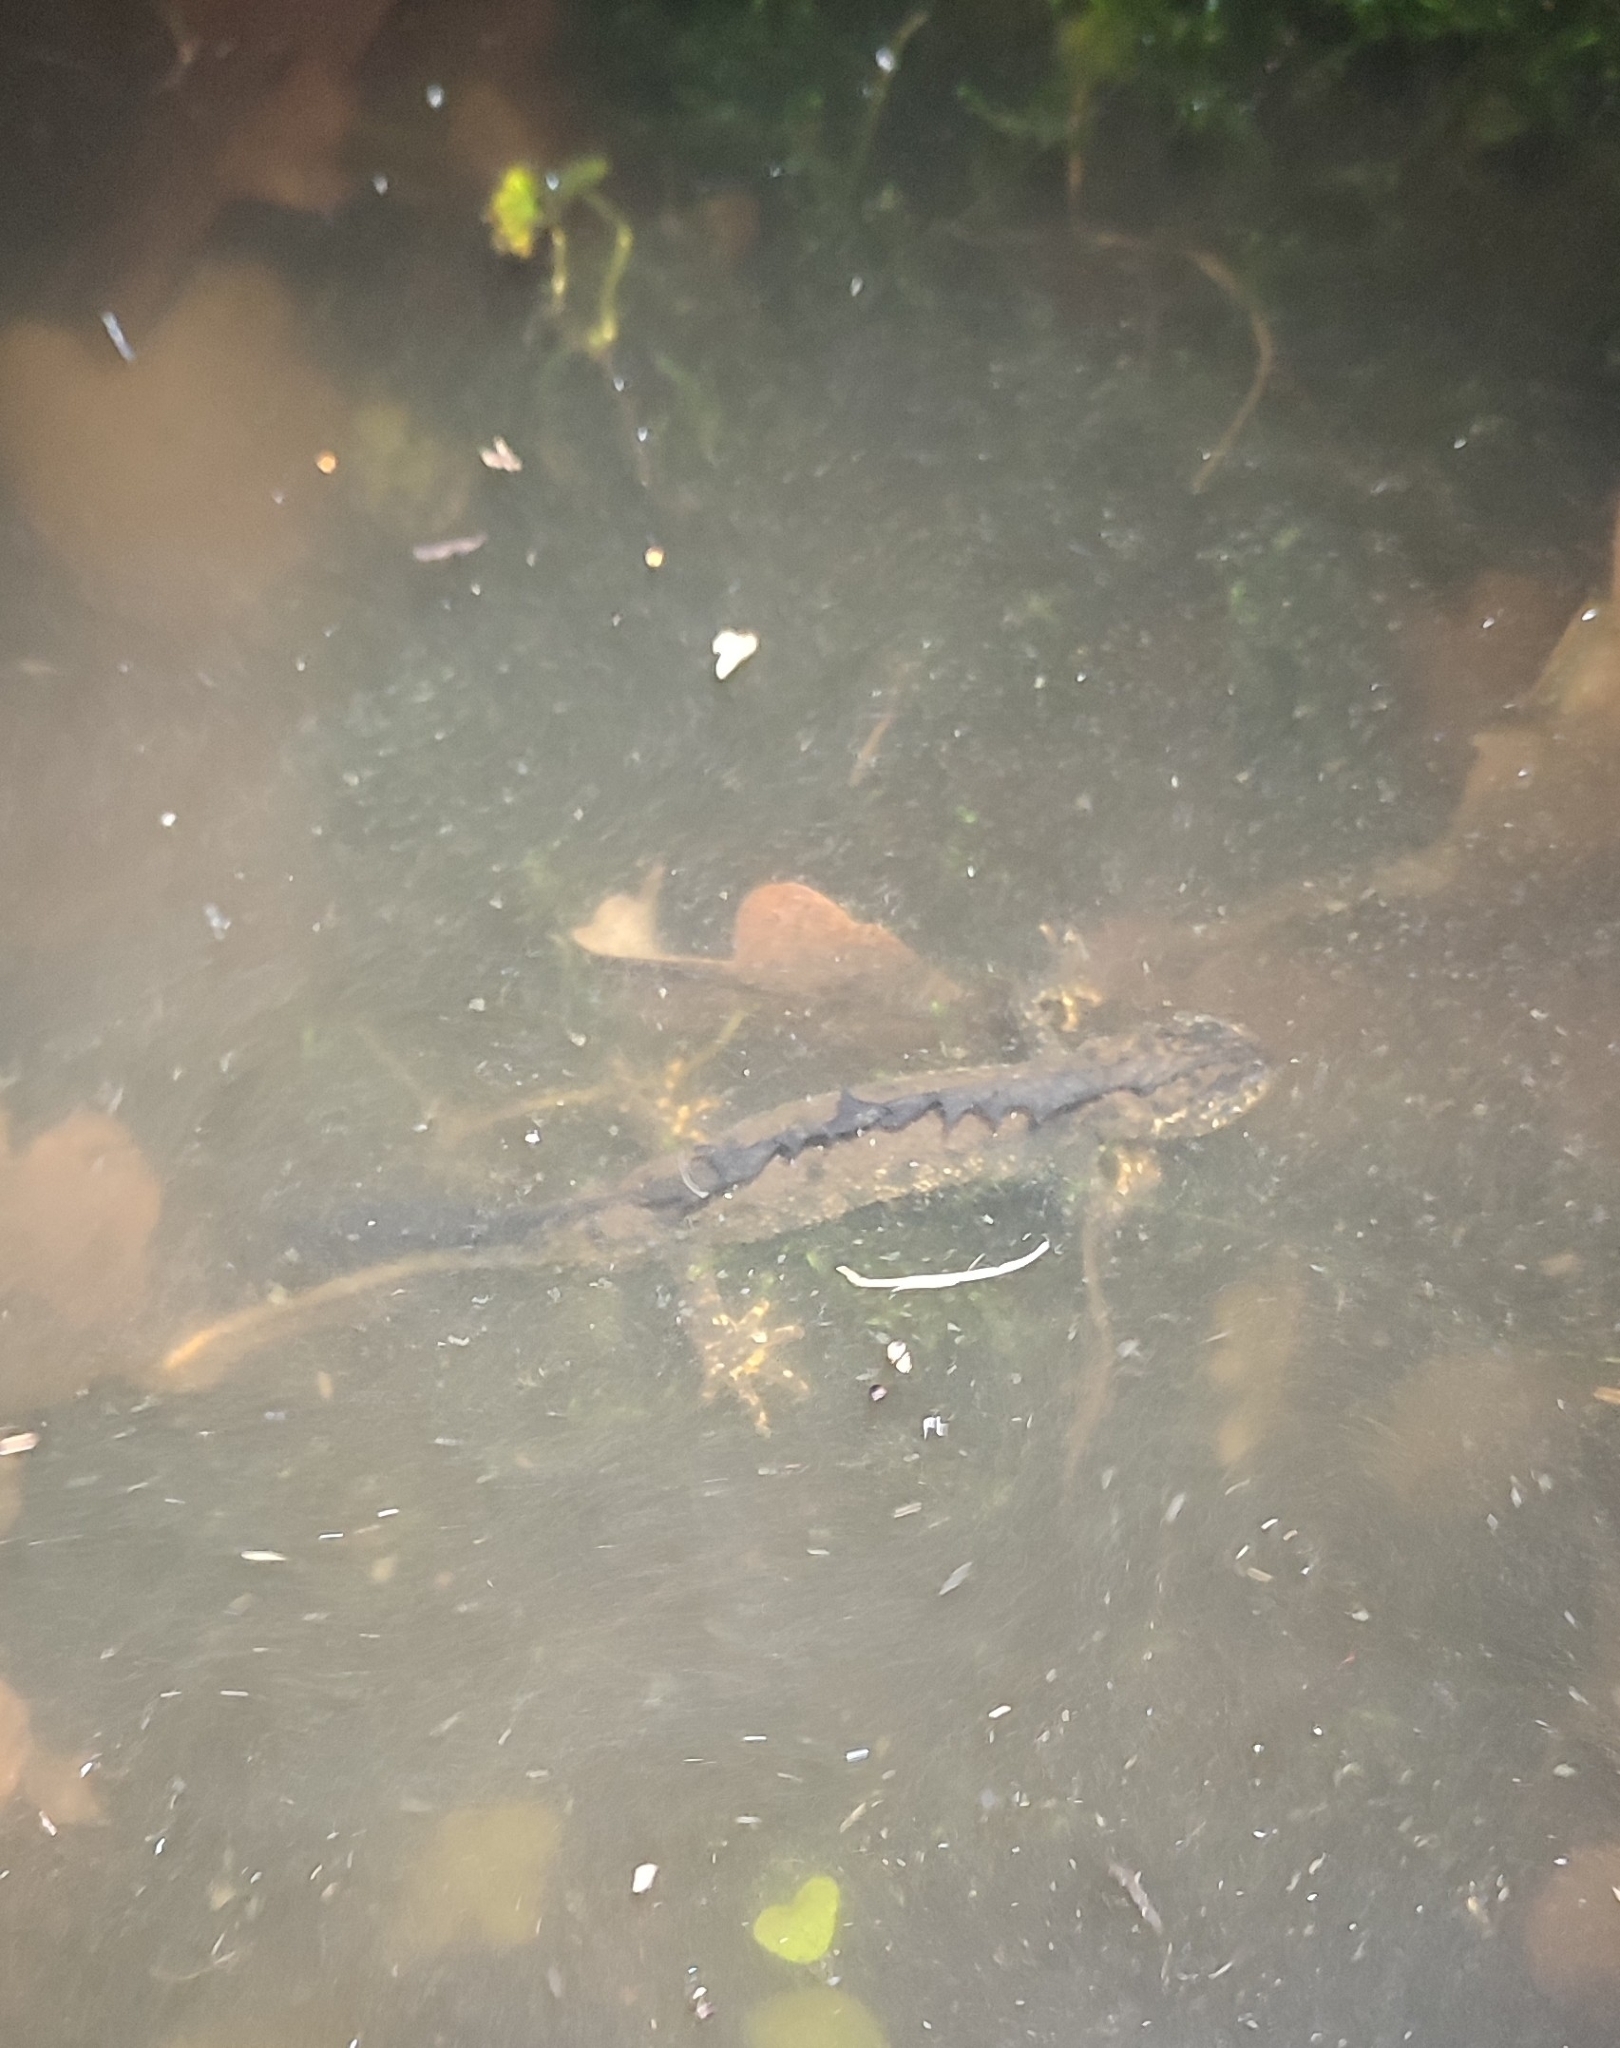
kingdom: Animalia
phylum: Chordata
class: Amphibia
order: Caudata
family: Salamandridae
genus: Triturus
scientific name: Triturus cristatus
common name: Crested newt
